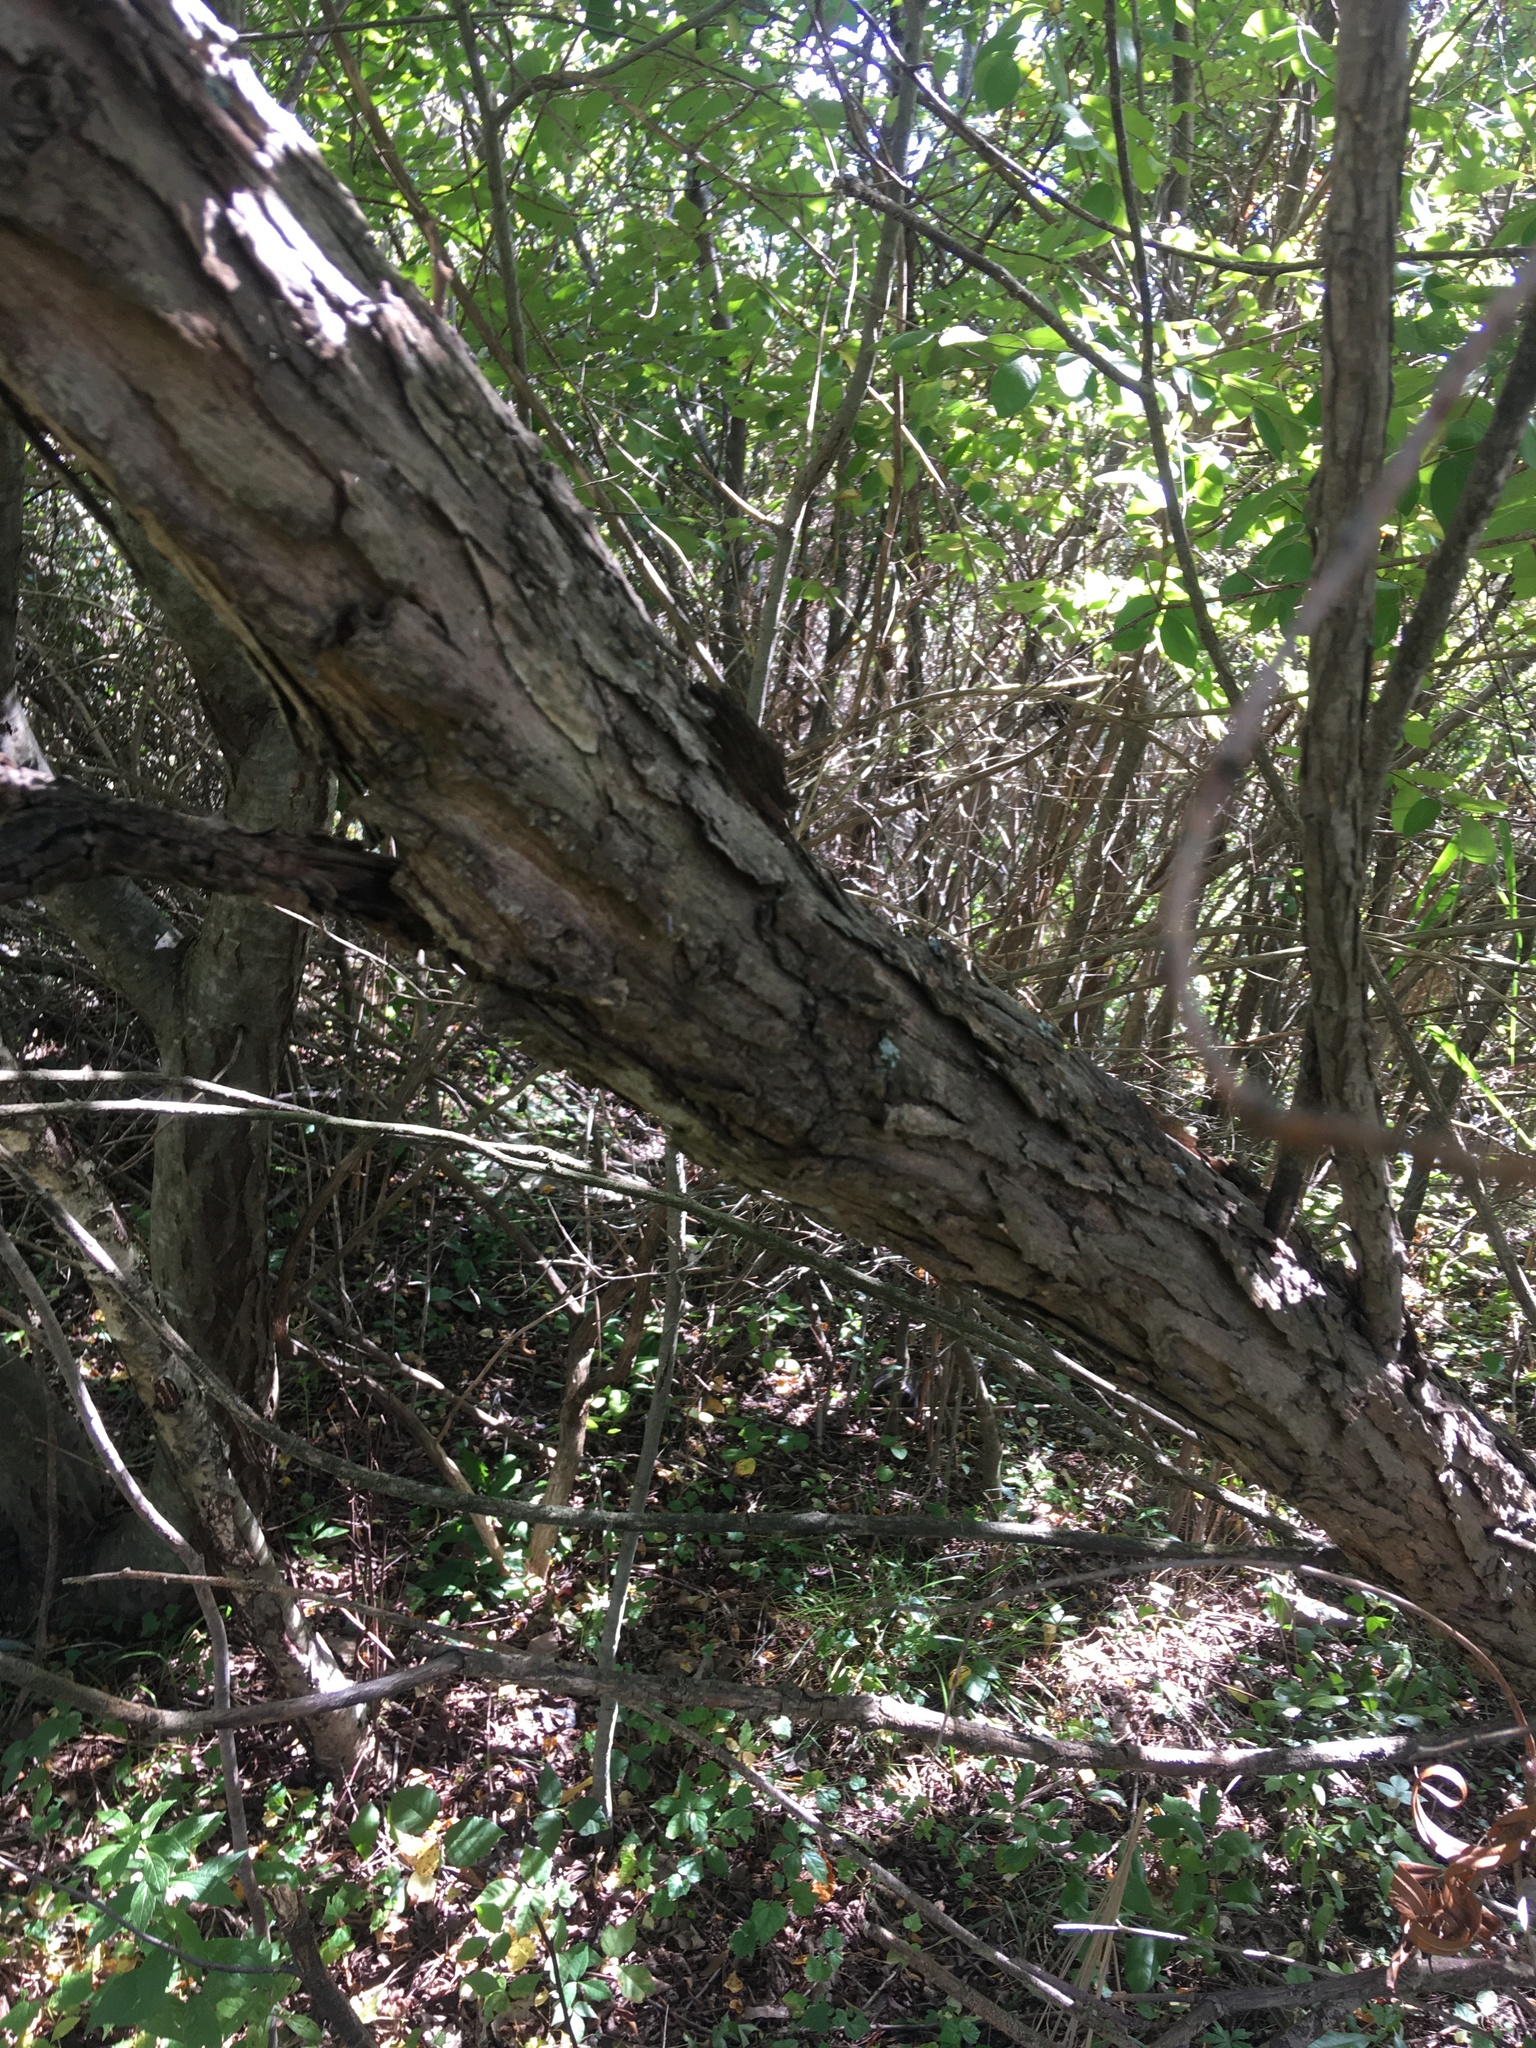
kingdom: Plantae
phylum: Tracheophyta
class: Magnoliopsida
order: Malpighiales
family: Salicaceae
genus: Salix
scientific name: Salix nigra
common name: Black willow
